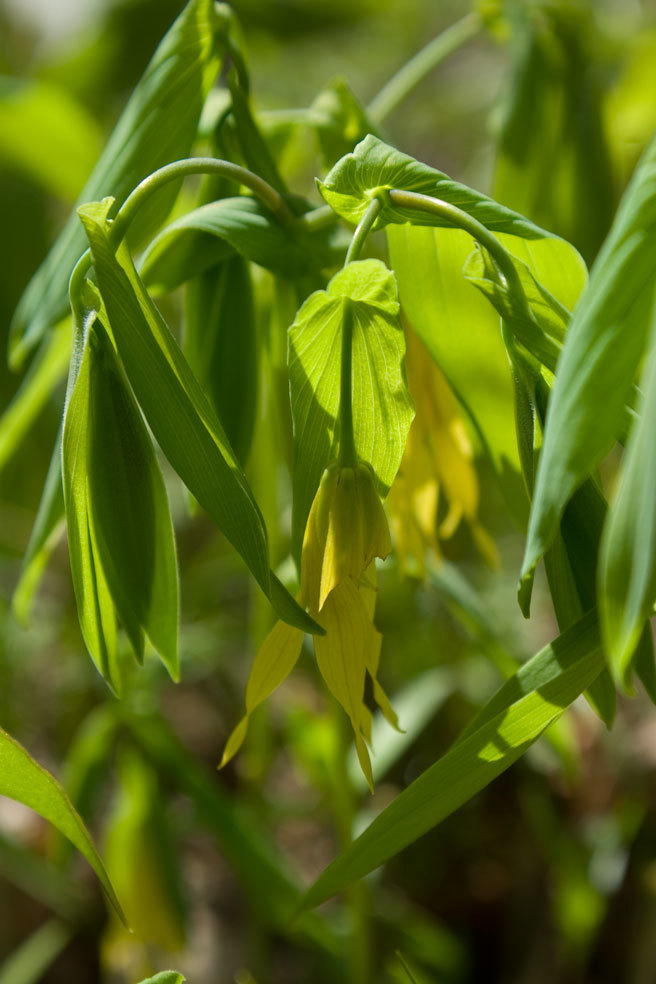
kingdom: Plantae
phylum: Tracheophyta
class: Liliopsida
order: Liliales
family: Colchicaceae
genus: Uvularia
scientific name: Uvularia grandiflora
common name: Bellwort
